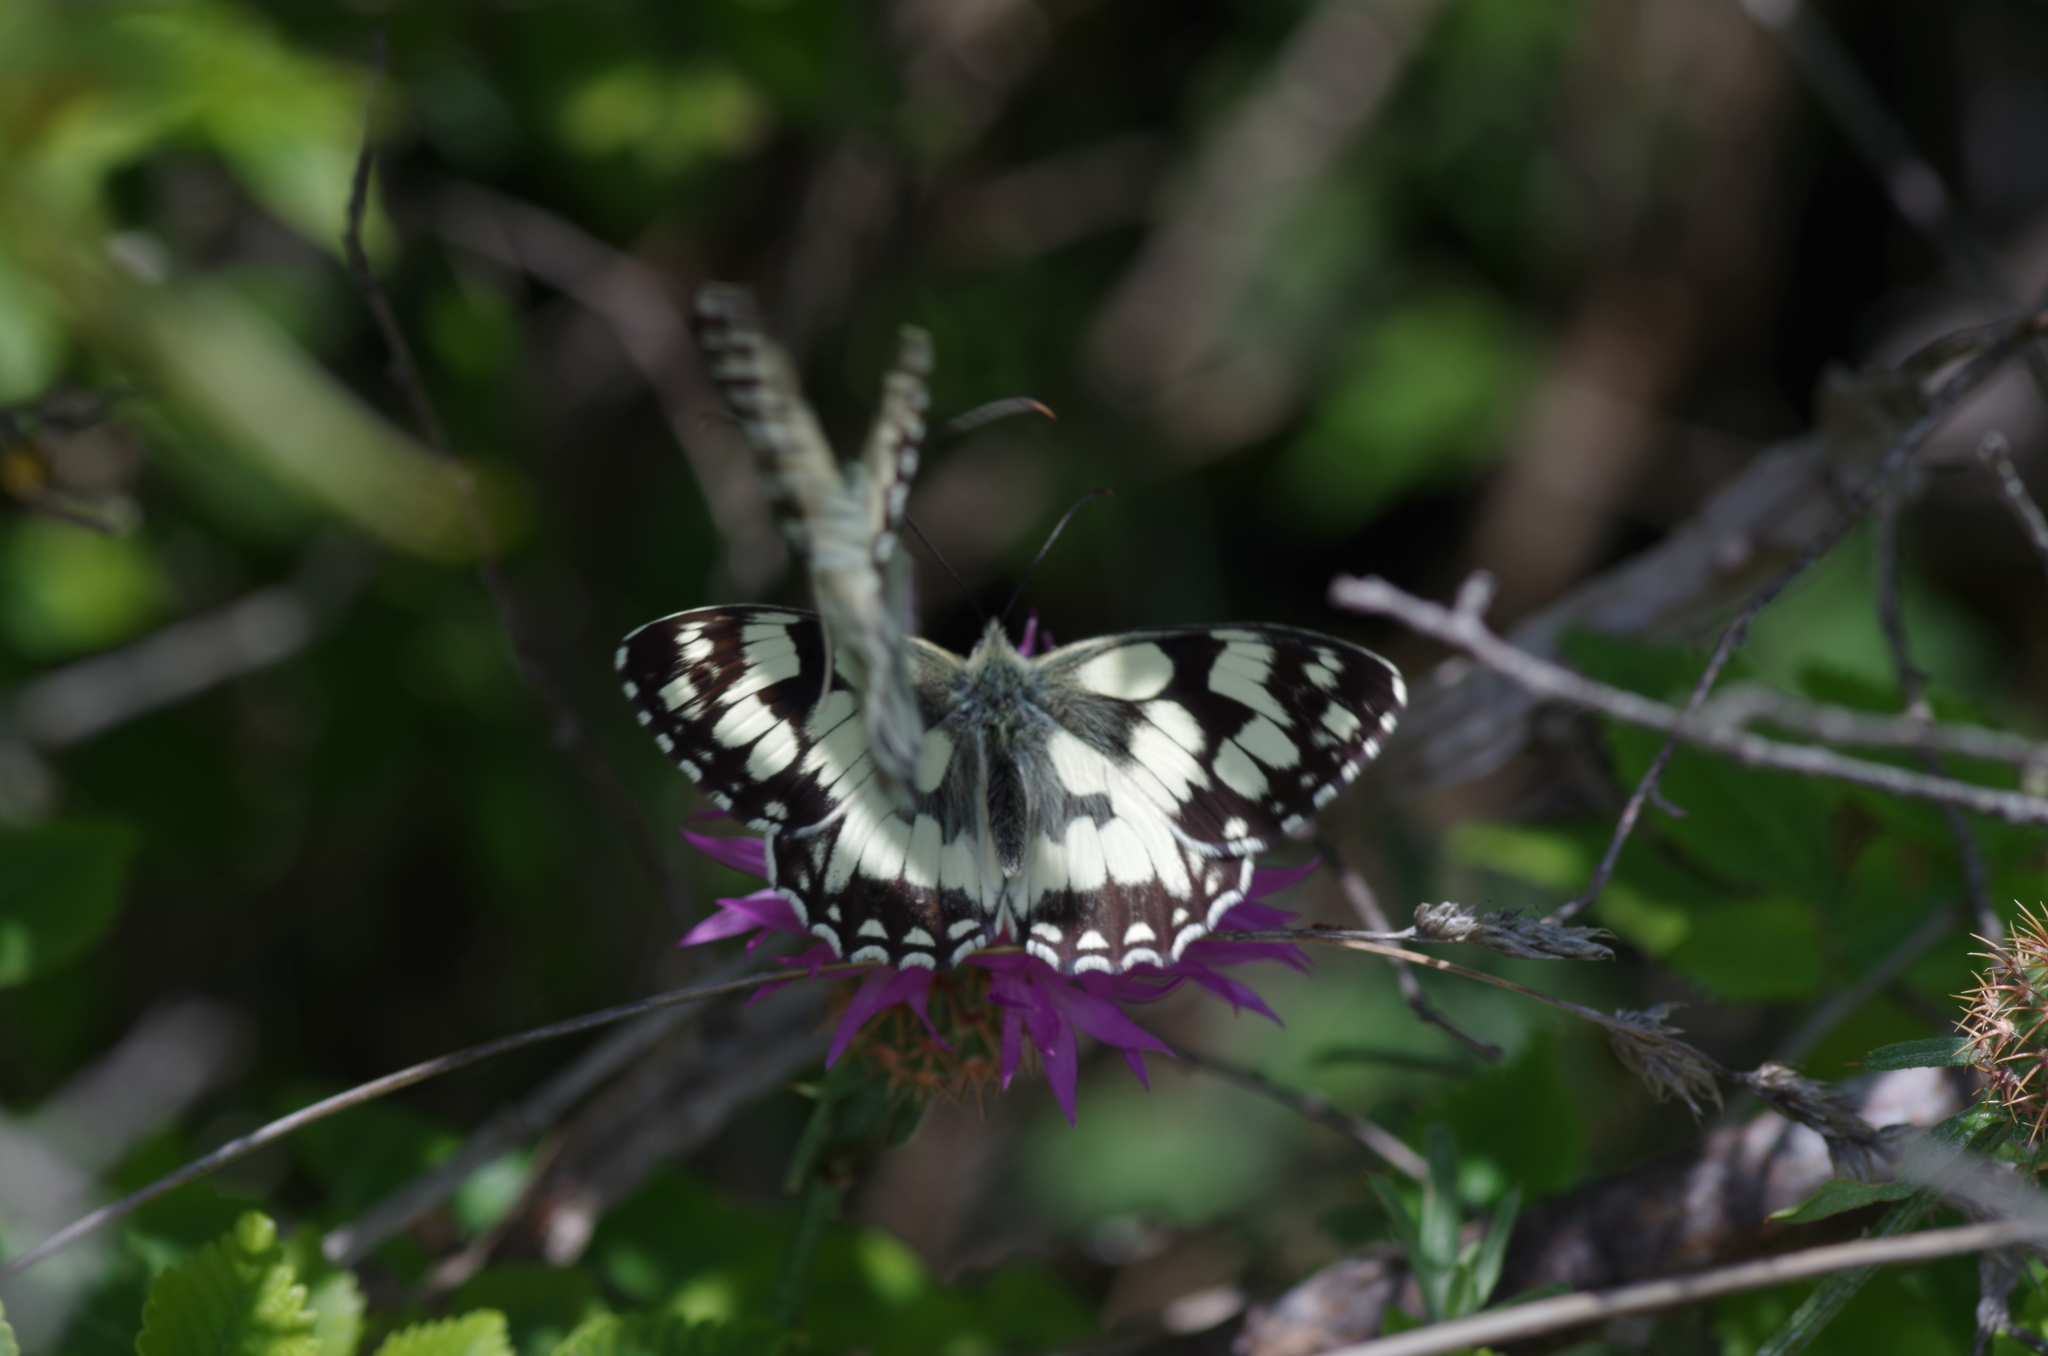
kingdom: Animalia
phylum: Arthropoda
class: Insecta
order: Lepidoptera
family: Nymphalidae
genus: Melanargia
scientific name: Melanargia galathea
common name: Marbled white
